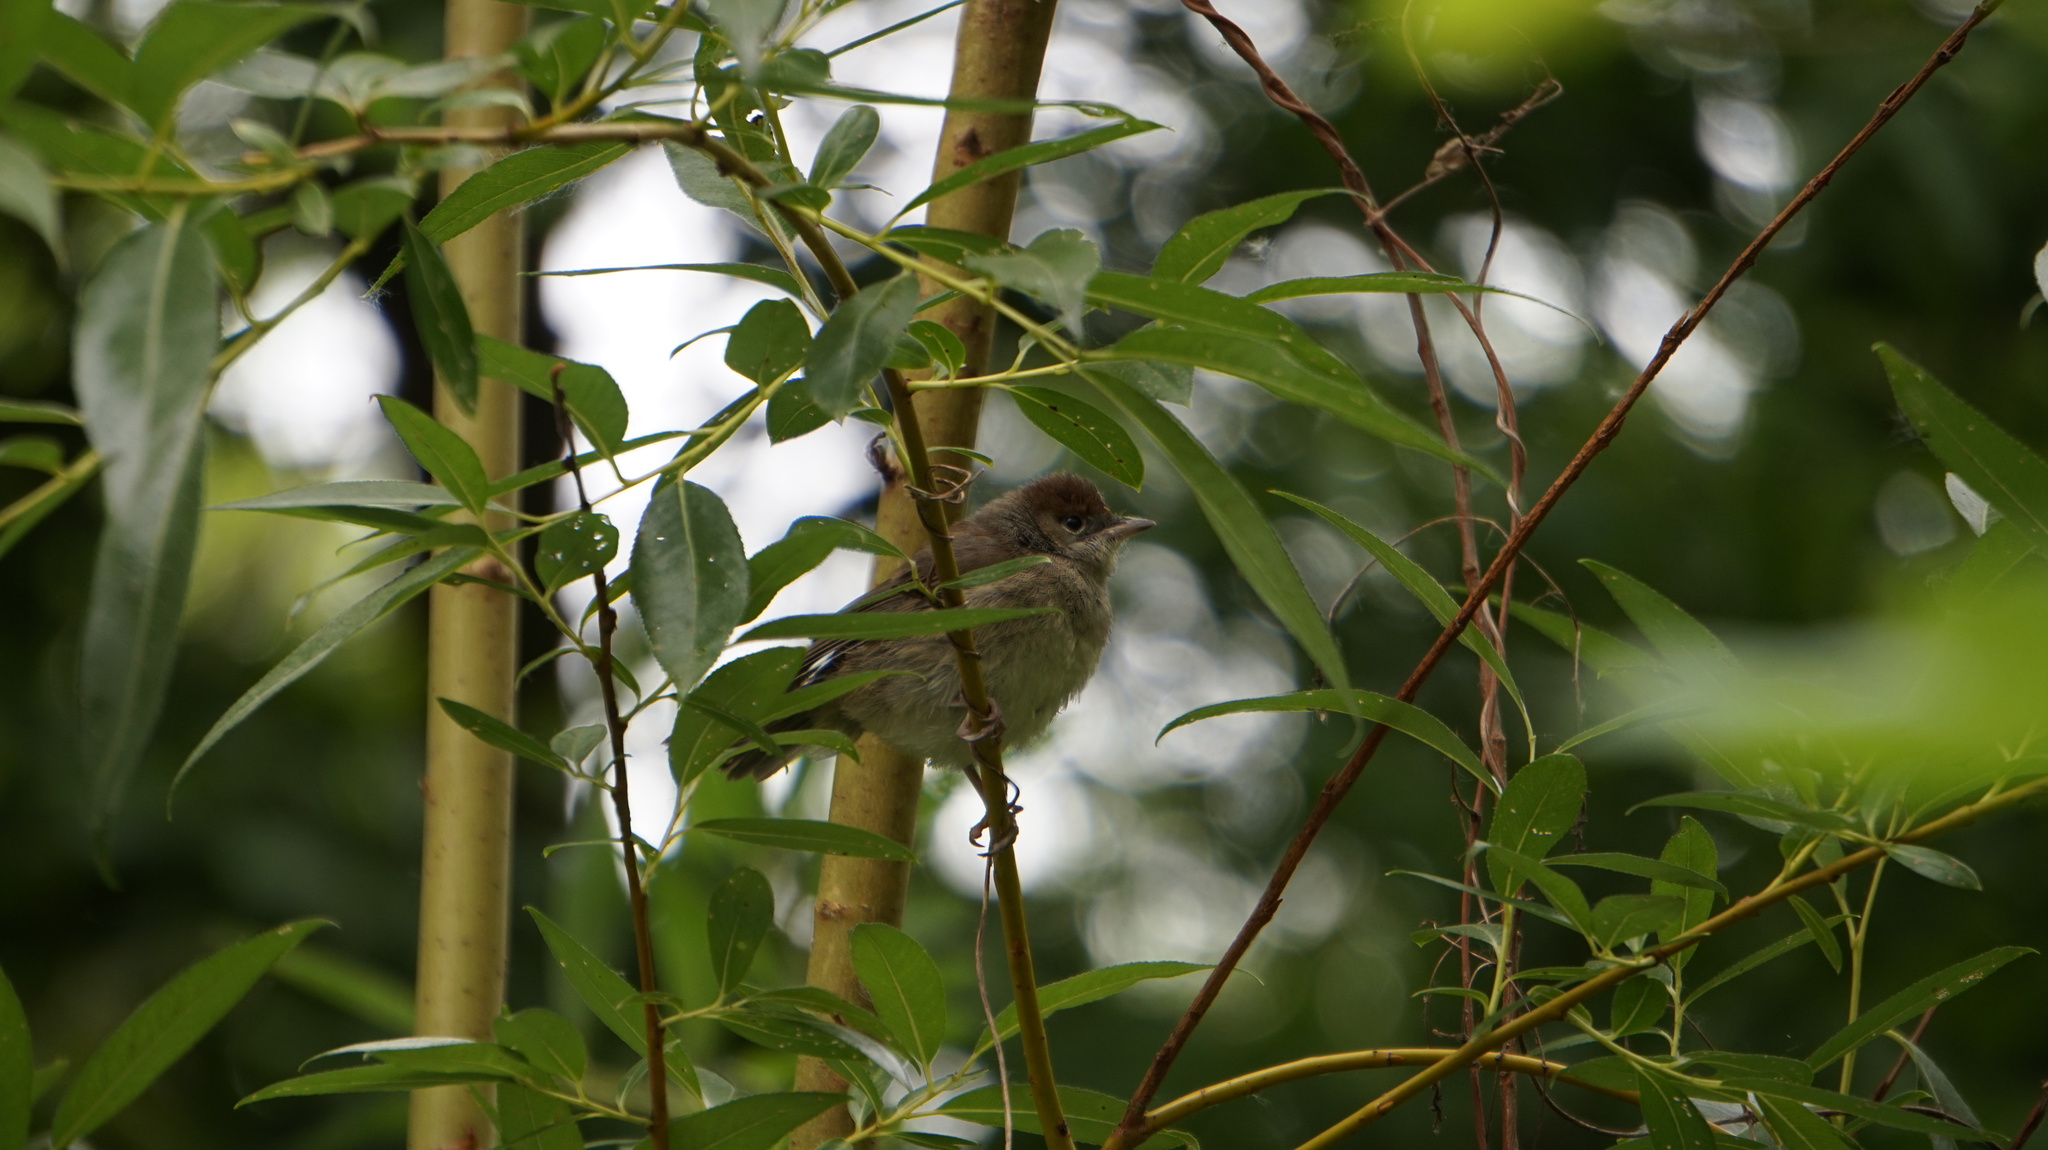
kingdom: Animalia
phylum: Chordata
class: Aves
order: Passeriformes
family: Sylviidae
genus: Sylvia
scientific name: Sylvia atricapilla
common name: Eurasian blackcap
